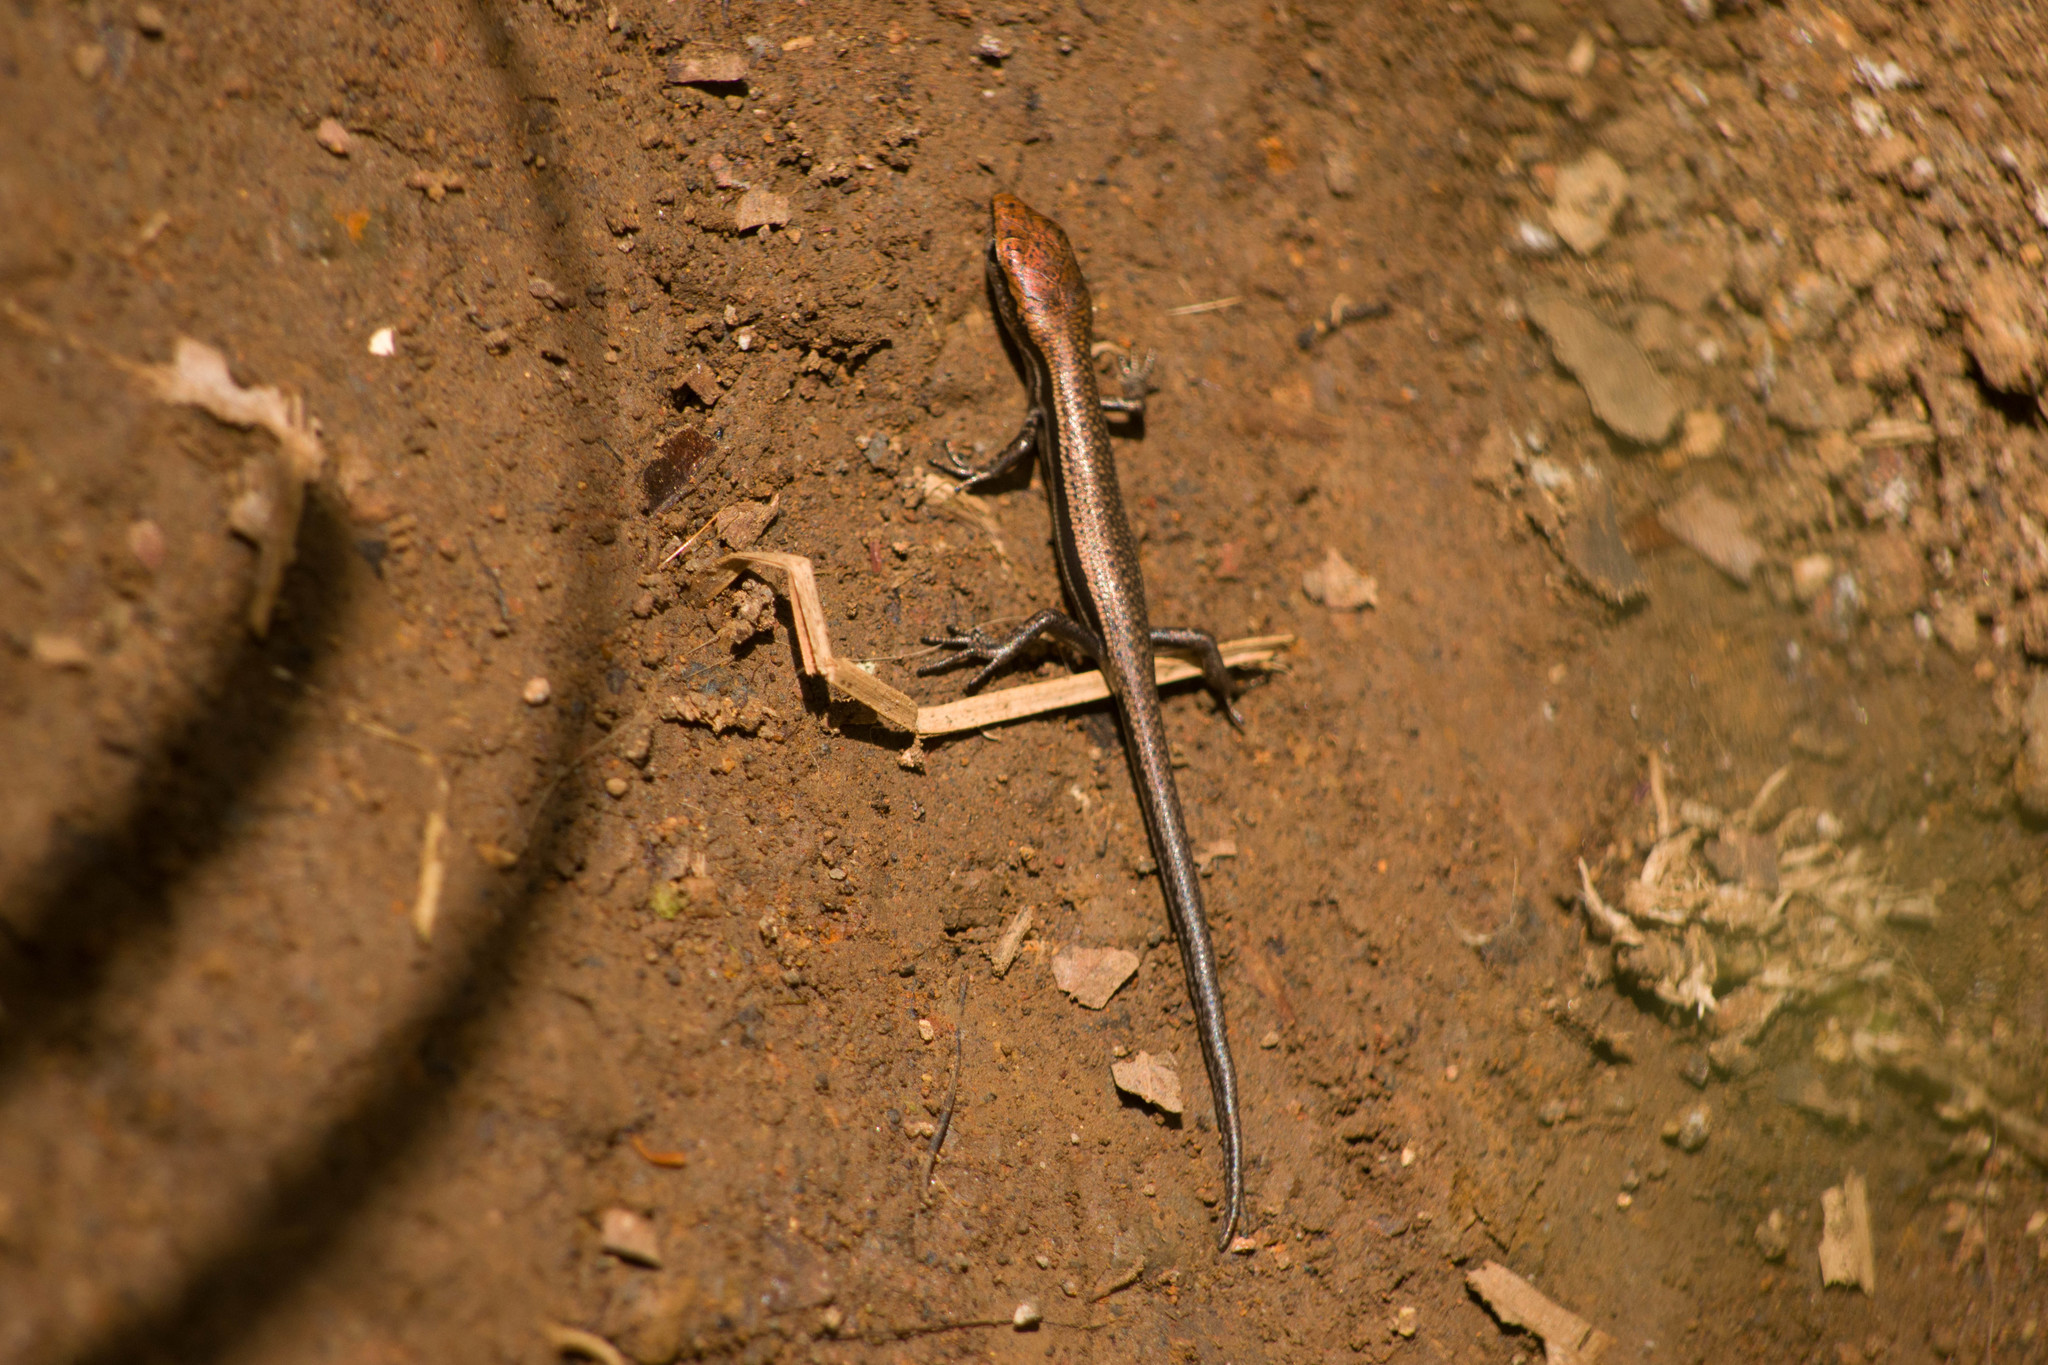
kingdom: Animalia
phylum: Chordata
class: Squamata
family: Scincidae
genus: Lampropholis
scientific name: Lampropholis delicata
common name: Plague skink
